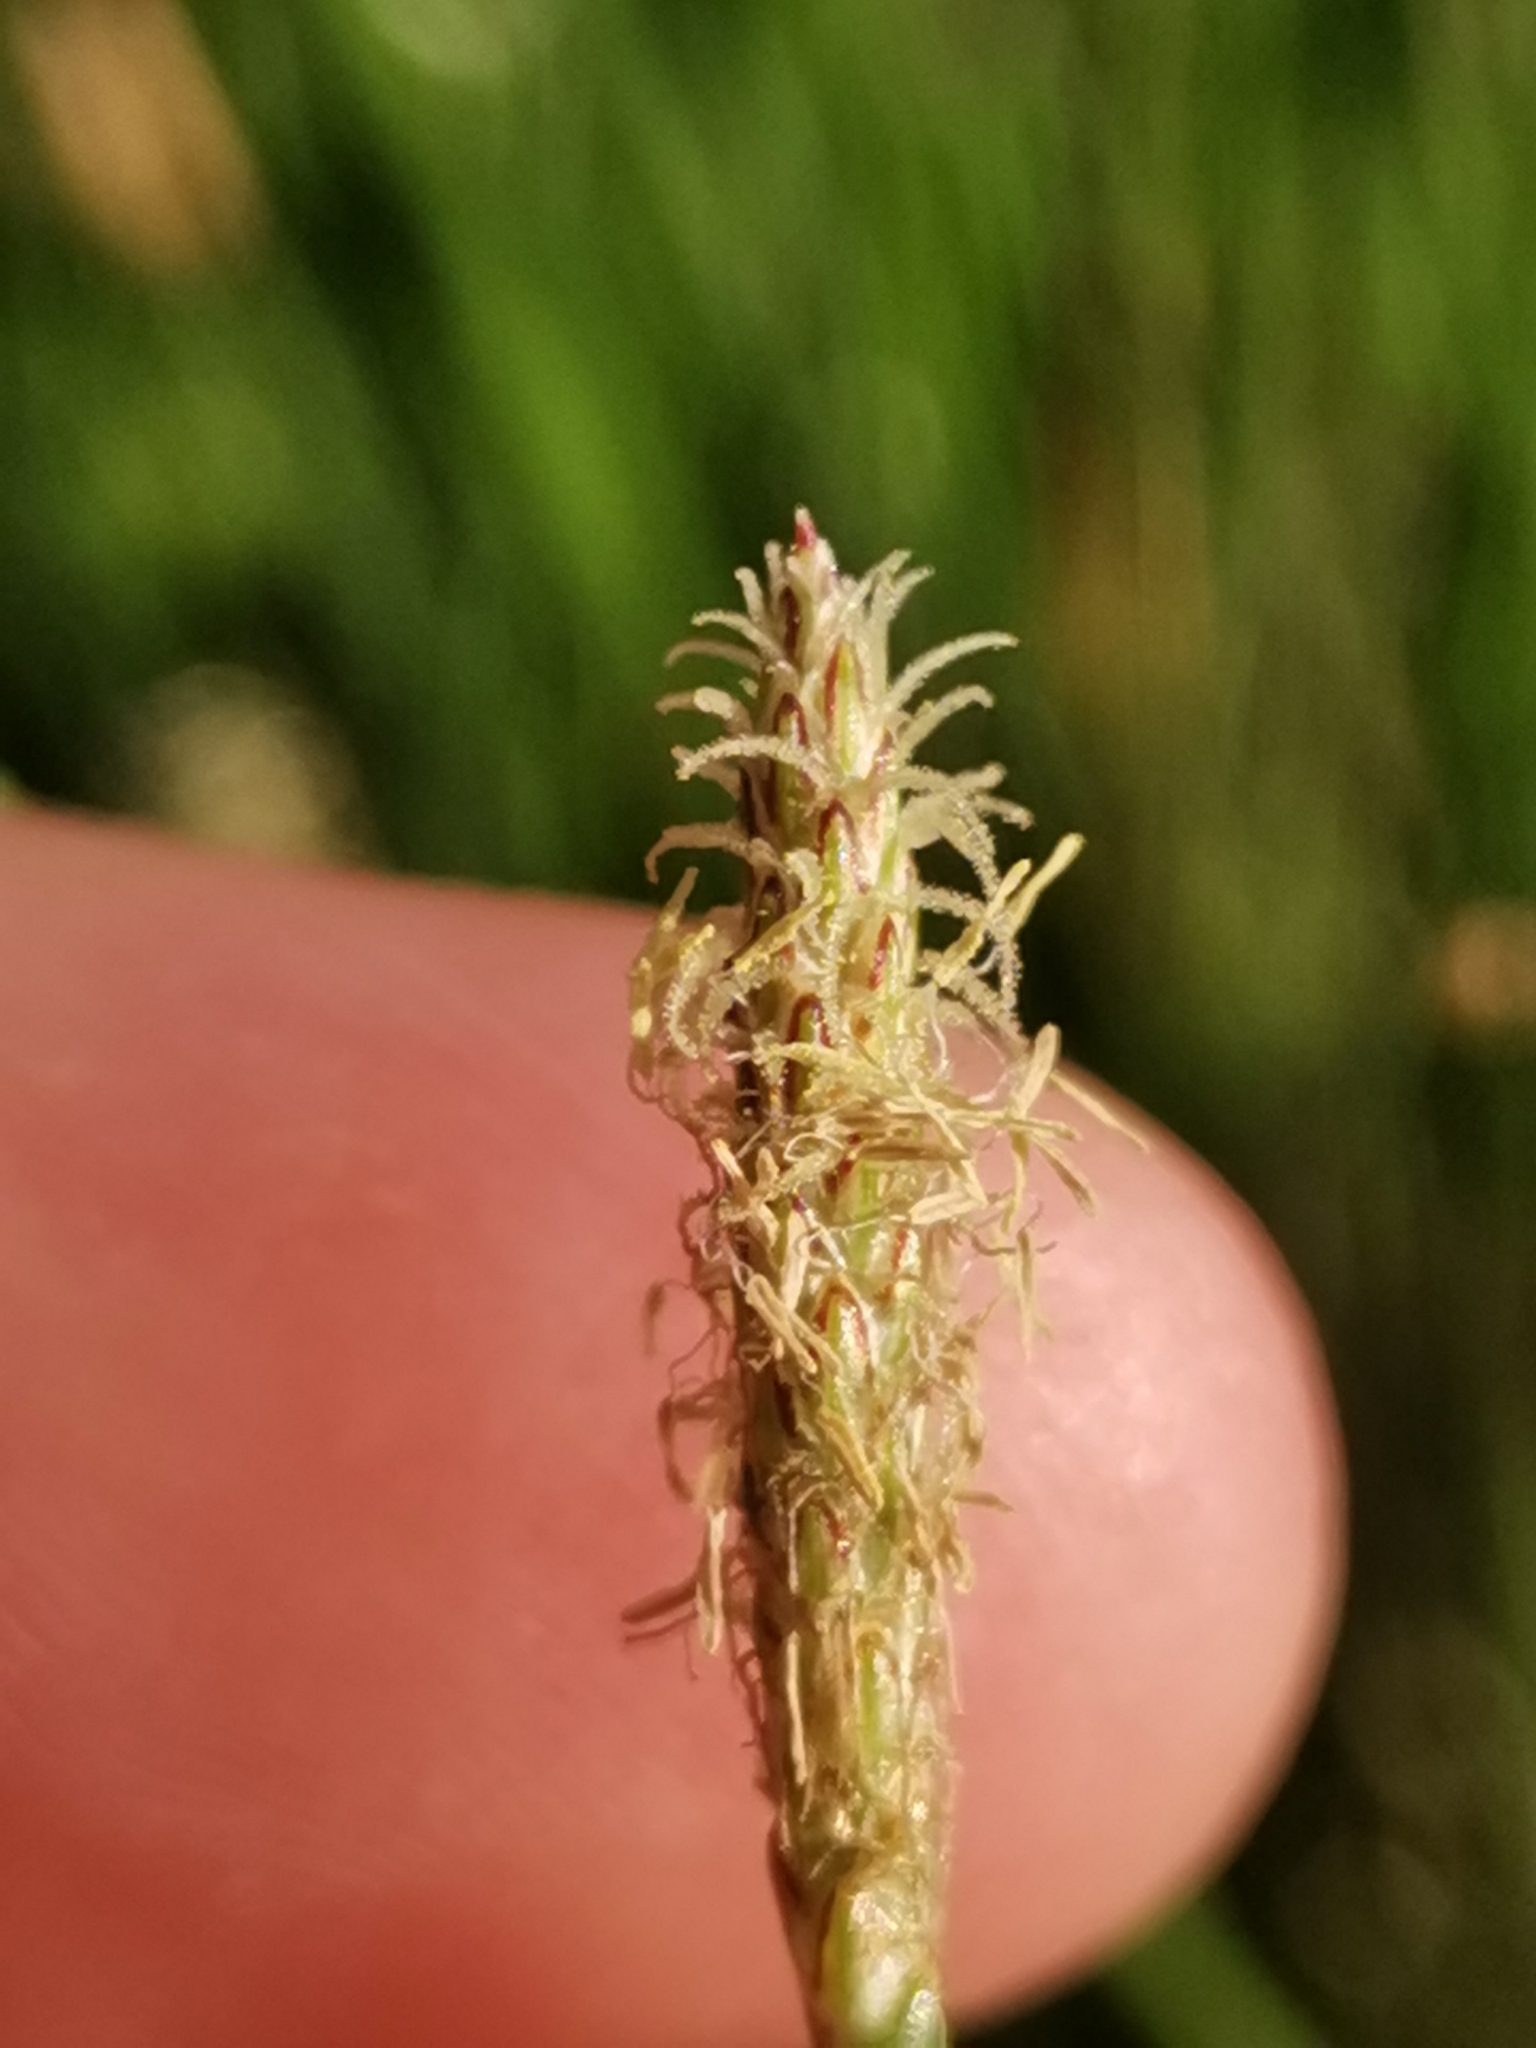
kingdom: Plantae
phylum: Tracheophyta
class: Liliopsida
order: Poales
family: Cyperaceae
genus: Eleocharis
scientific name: Eleocharis palustris
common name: Common spike-rush
